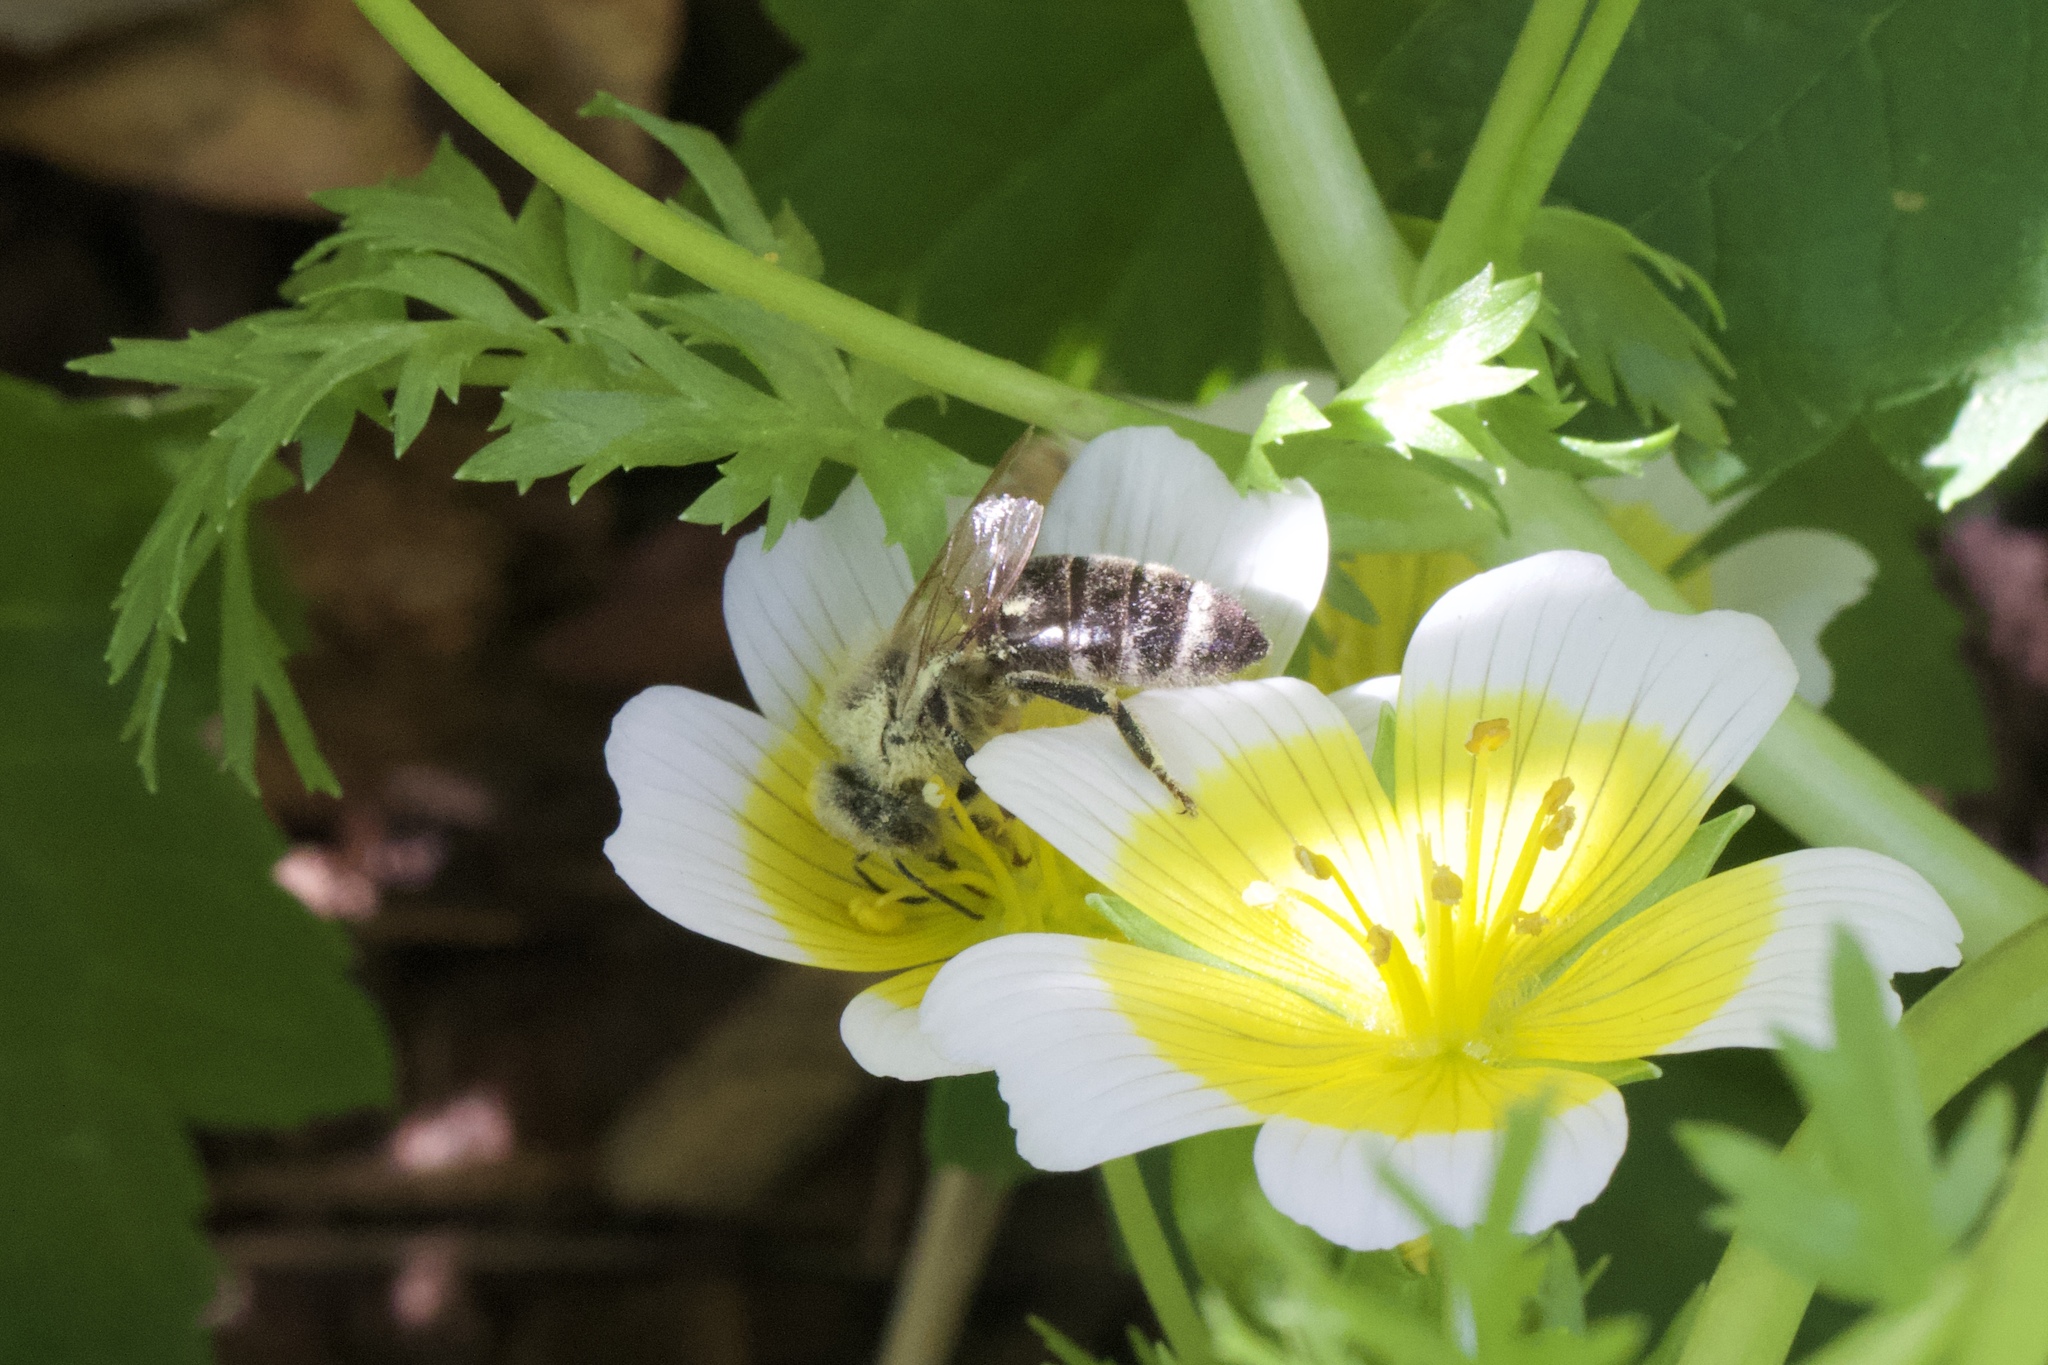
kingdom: Animalia
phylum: Arthropoda
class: Insecta
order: Hymenoptera
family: Apidae
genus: Apis
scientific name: Apis mellifera
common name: Honey bee
